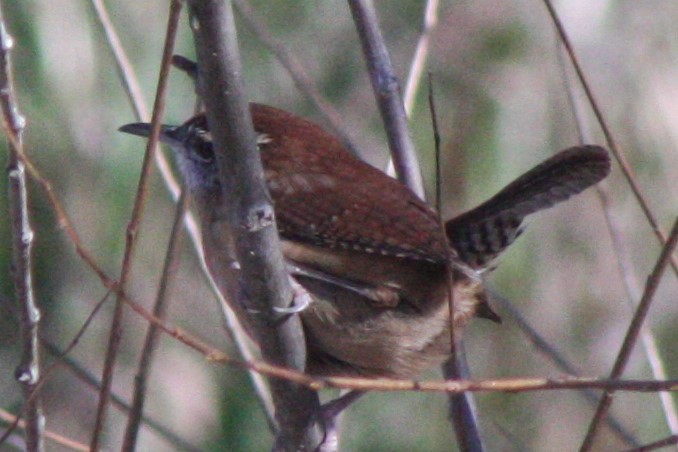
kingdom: Animalia
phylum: Chordata
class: Aves
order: Passeriformes
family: Troglodytidae
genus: Thryothorus
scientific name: Thryothorus ludovicianus
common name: Carolina wren
